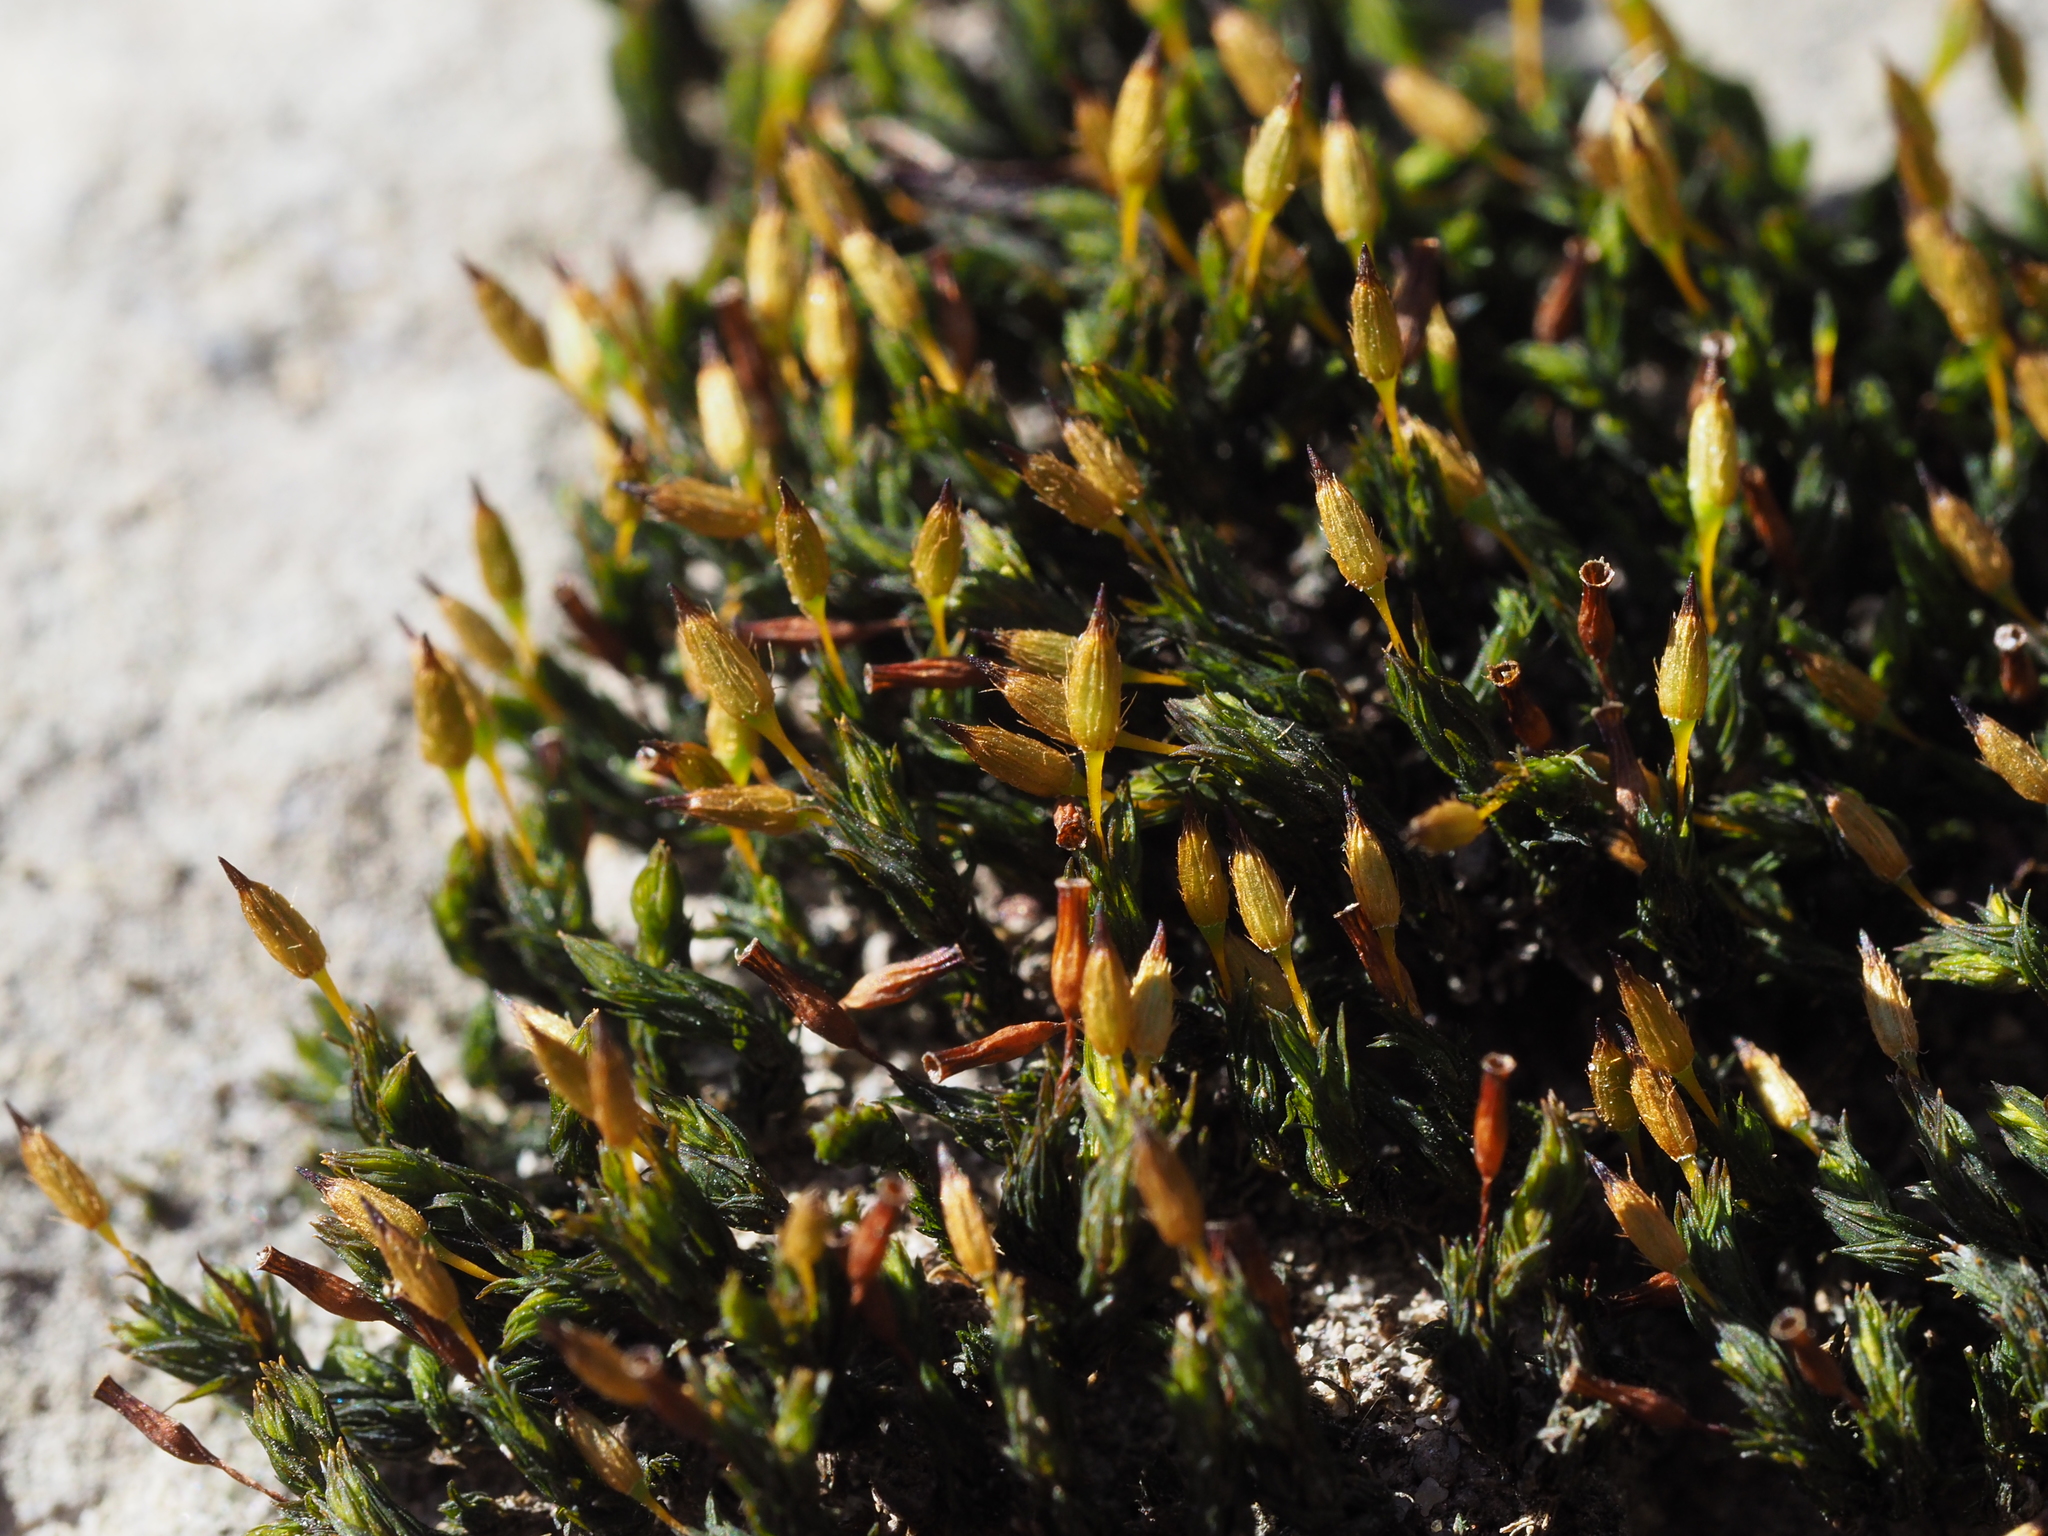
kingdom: Plantae
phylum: Bryophyta
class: Bryopsida
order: Orthotrichales
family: Orthotrichaceae
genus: Orthotrichum
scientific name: Orthotrichum anomalum
